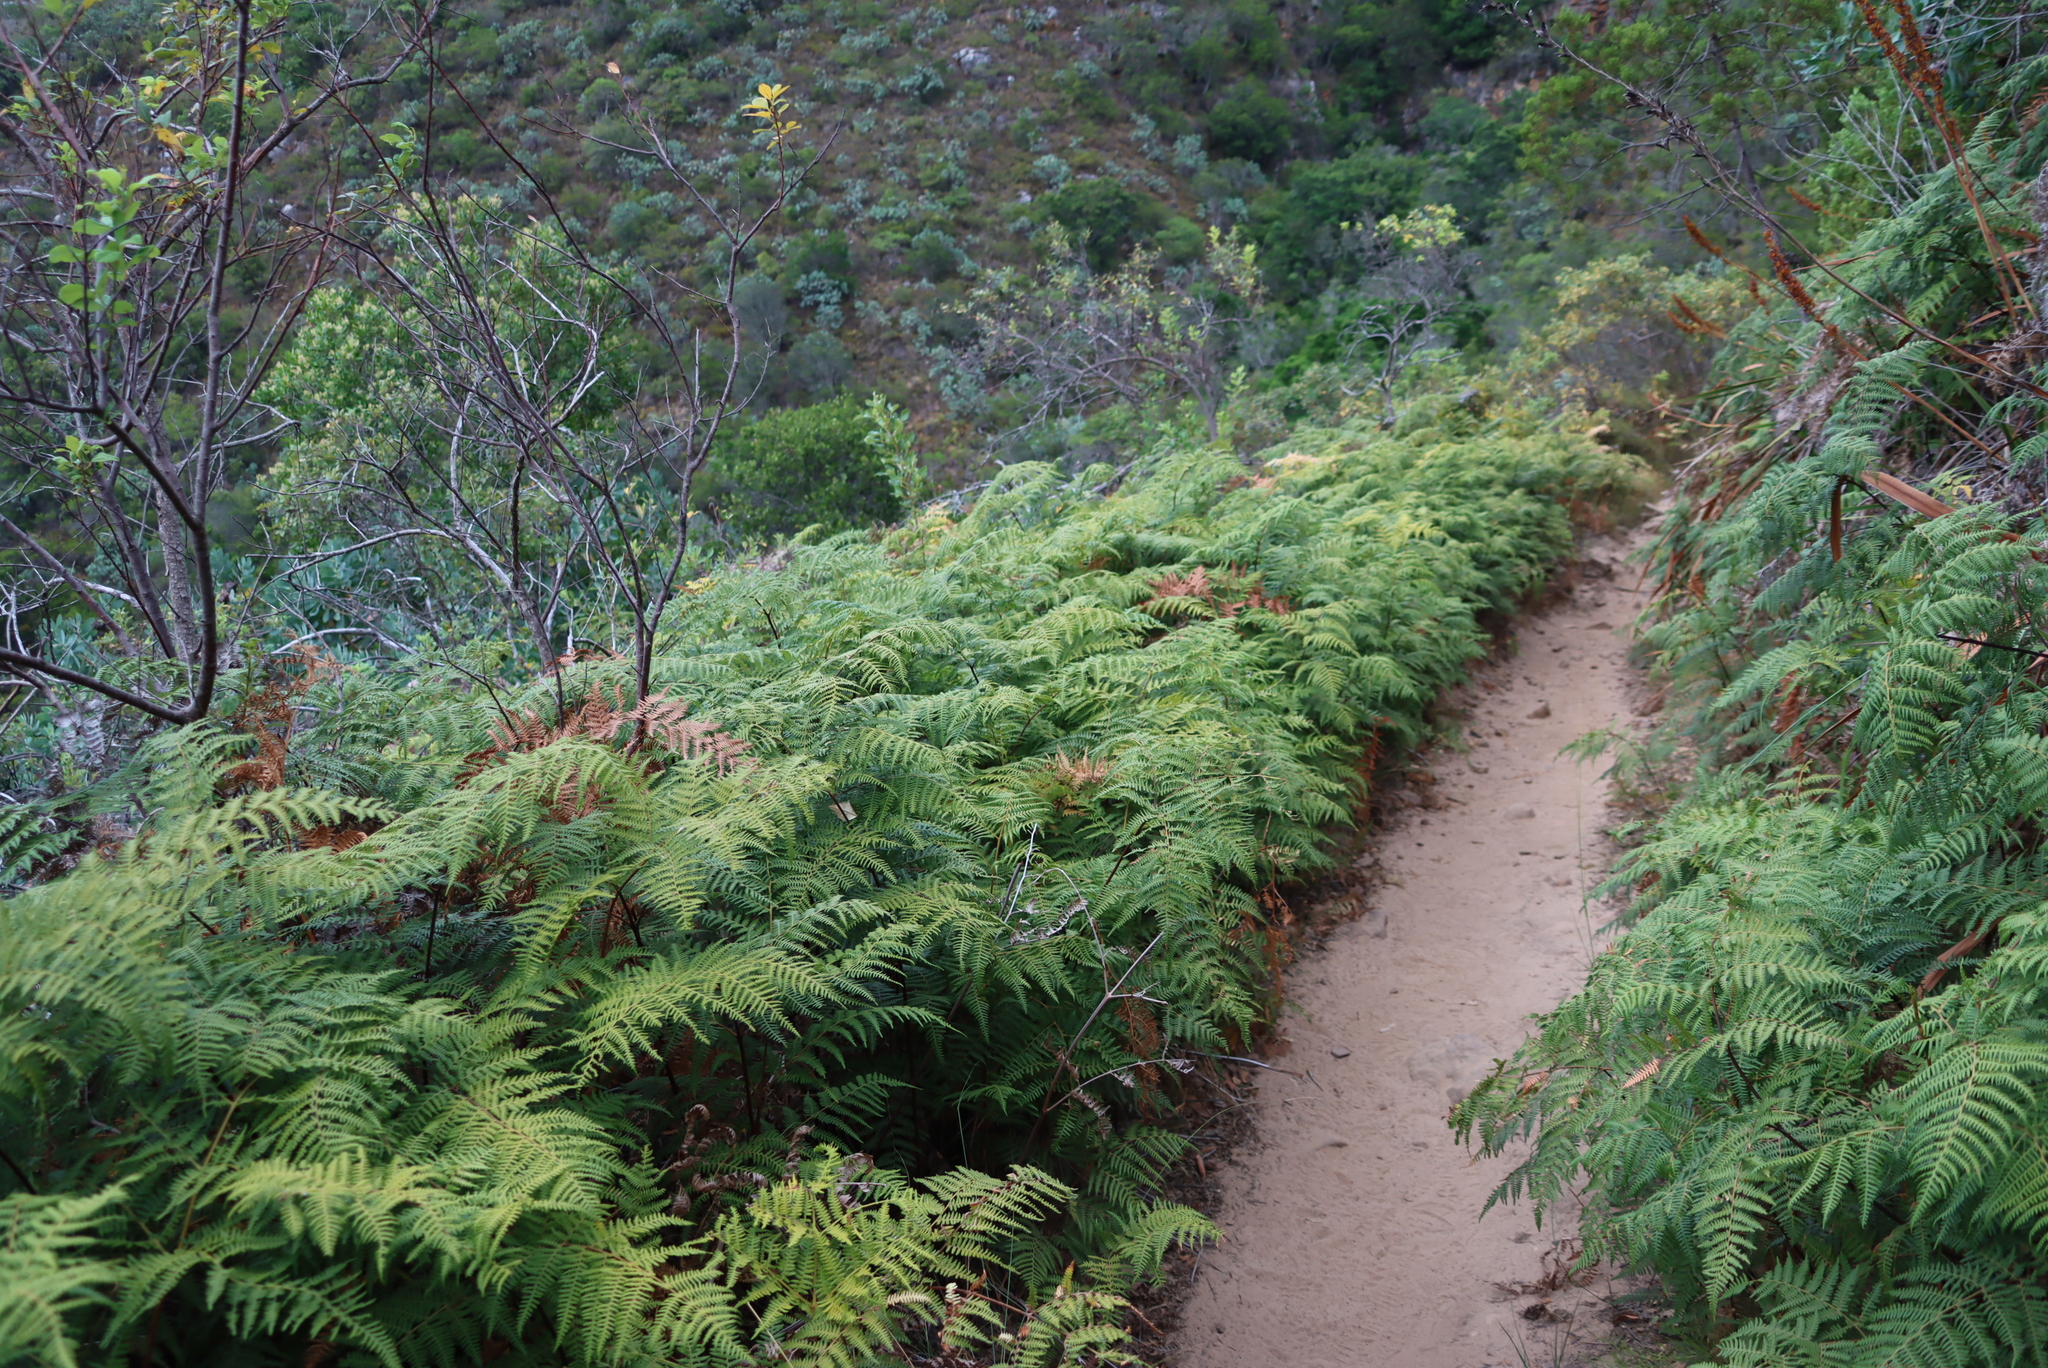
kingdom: Plantae
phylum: Tracheophyta
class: Polypodiopsida
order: Polypodiales
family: Dennstaedtiaceae
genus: Pteridium
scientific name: Pteridium aquilinum
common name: Bracken
